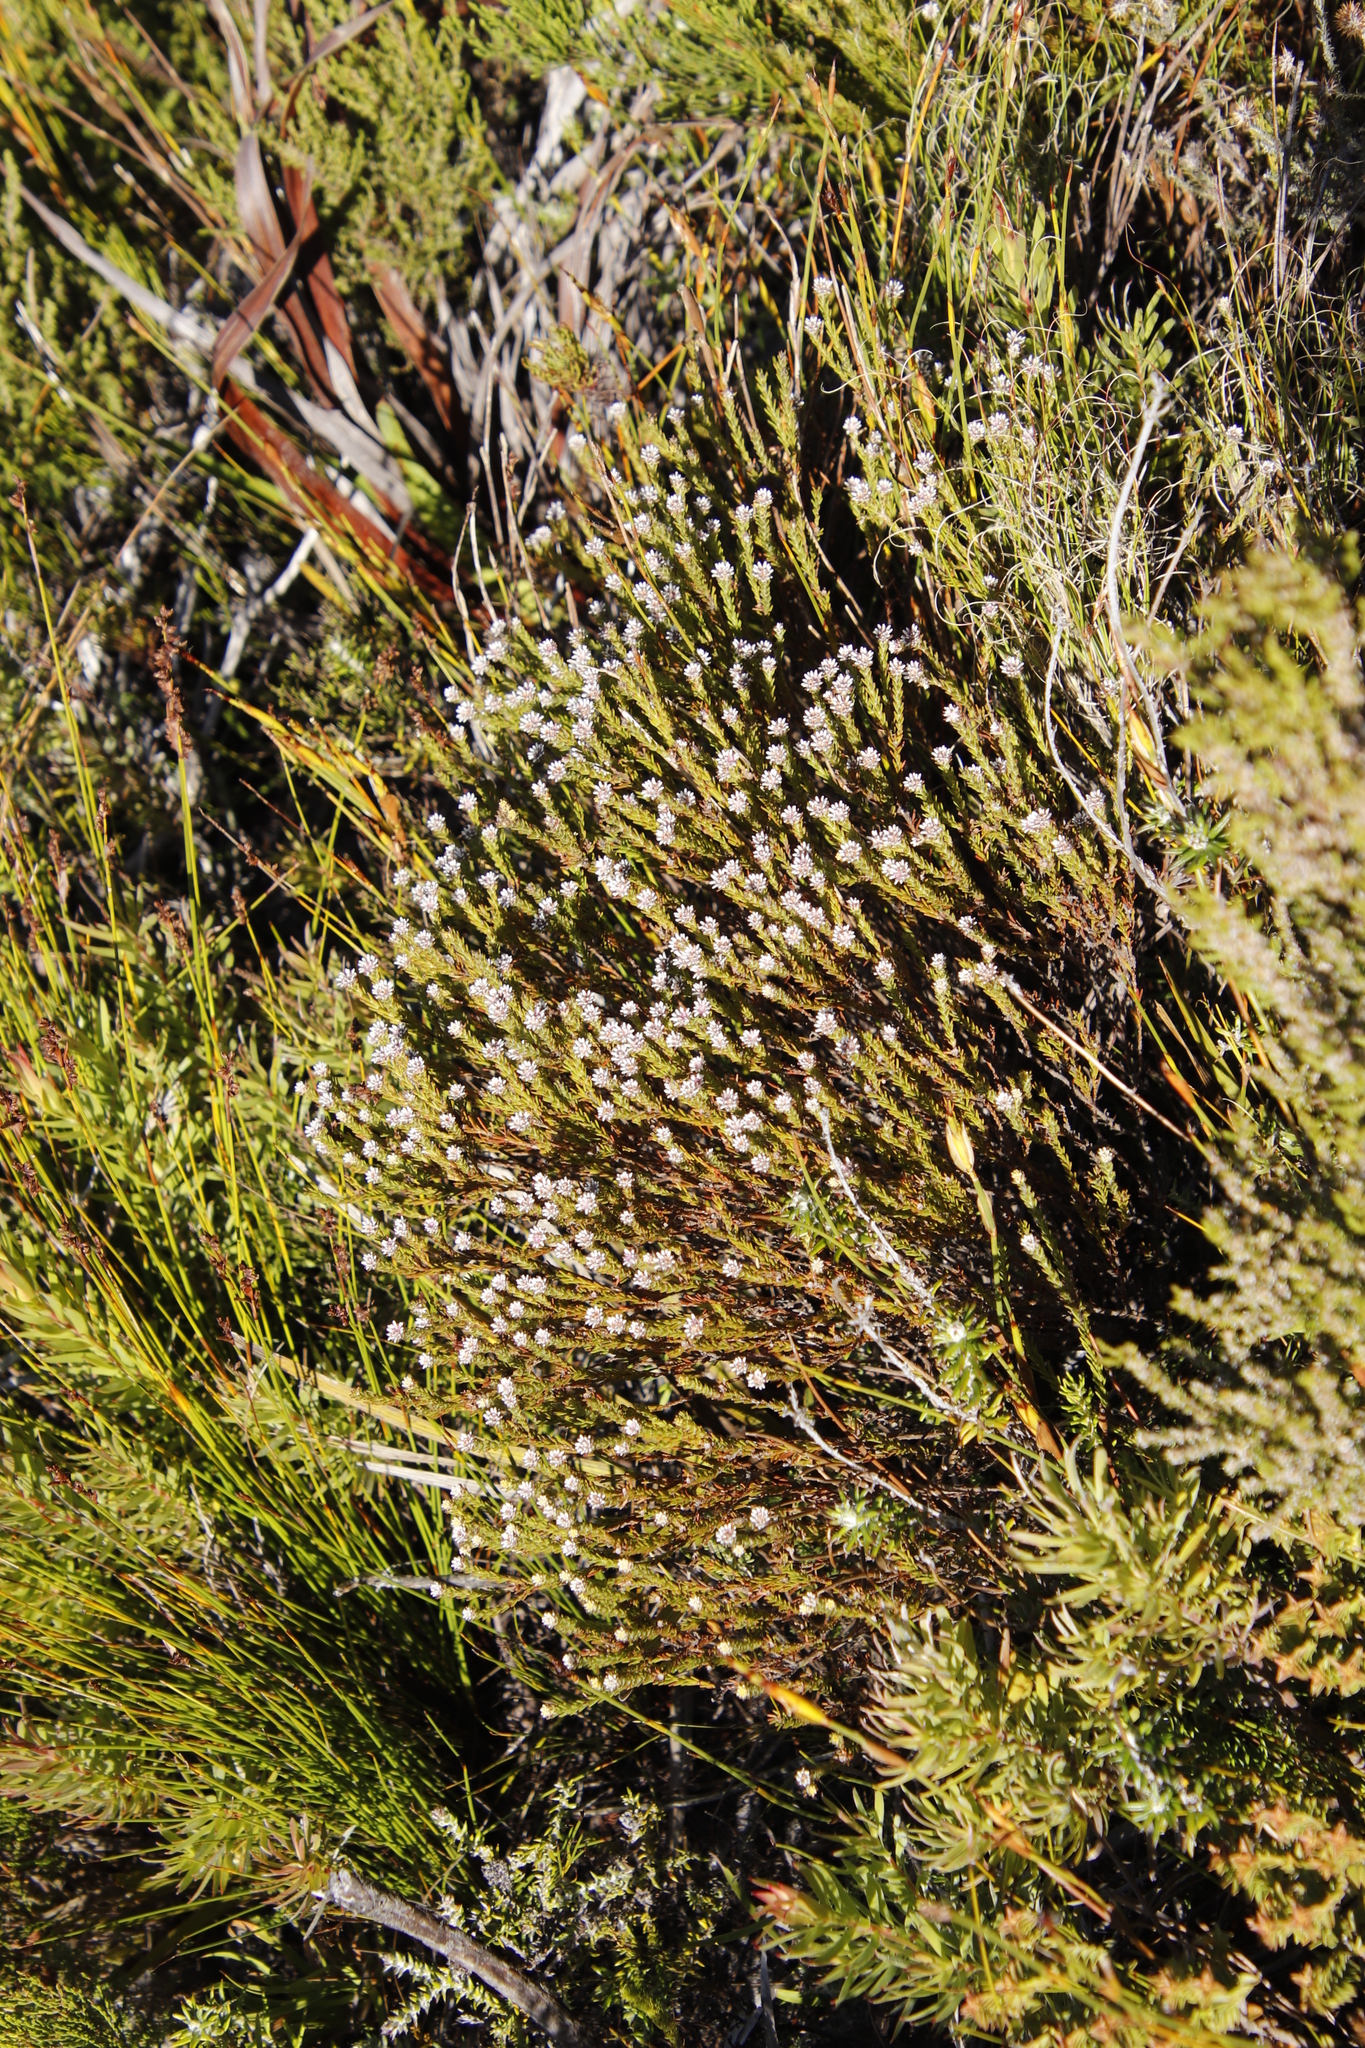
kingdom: Plantae
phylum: Tracheophyta
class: Magnoliopsida
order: Bruniales
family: Bruniaceae
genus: Staavia
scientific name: Staavia radiata
